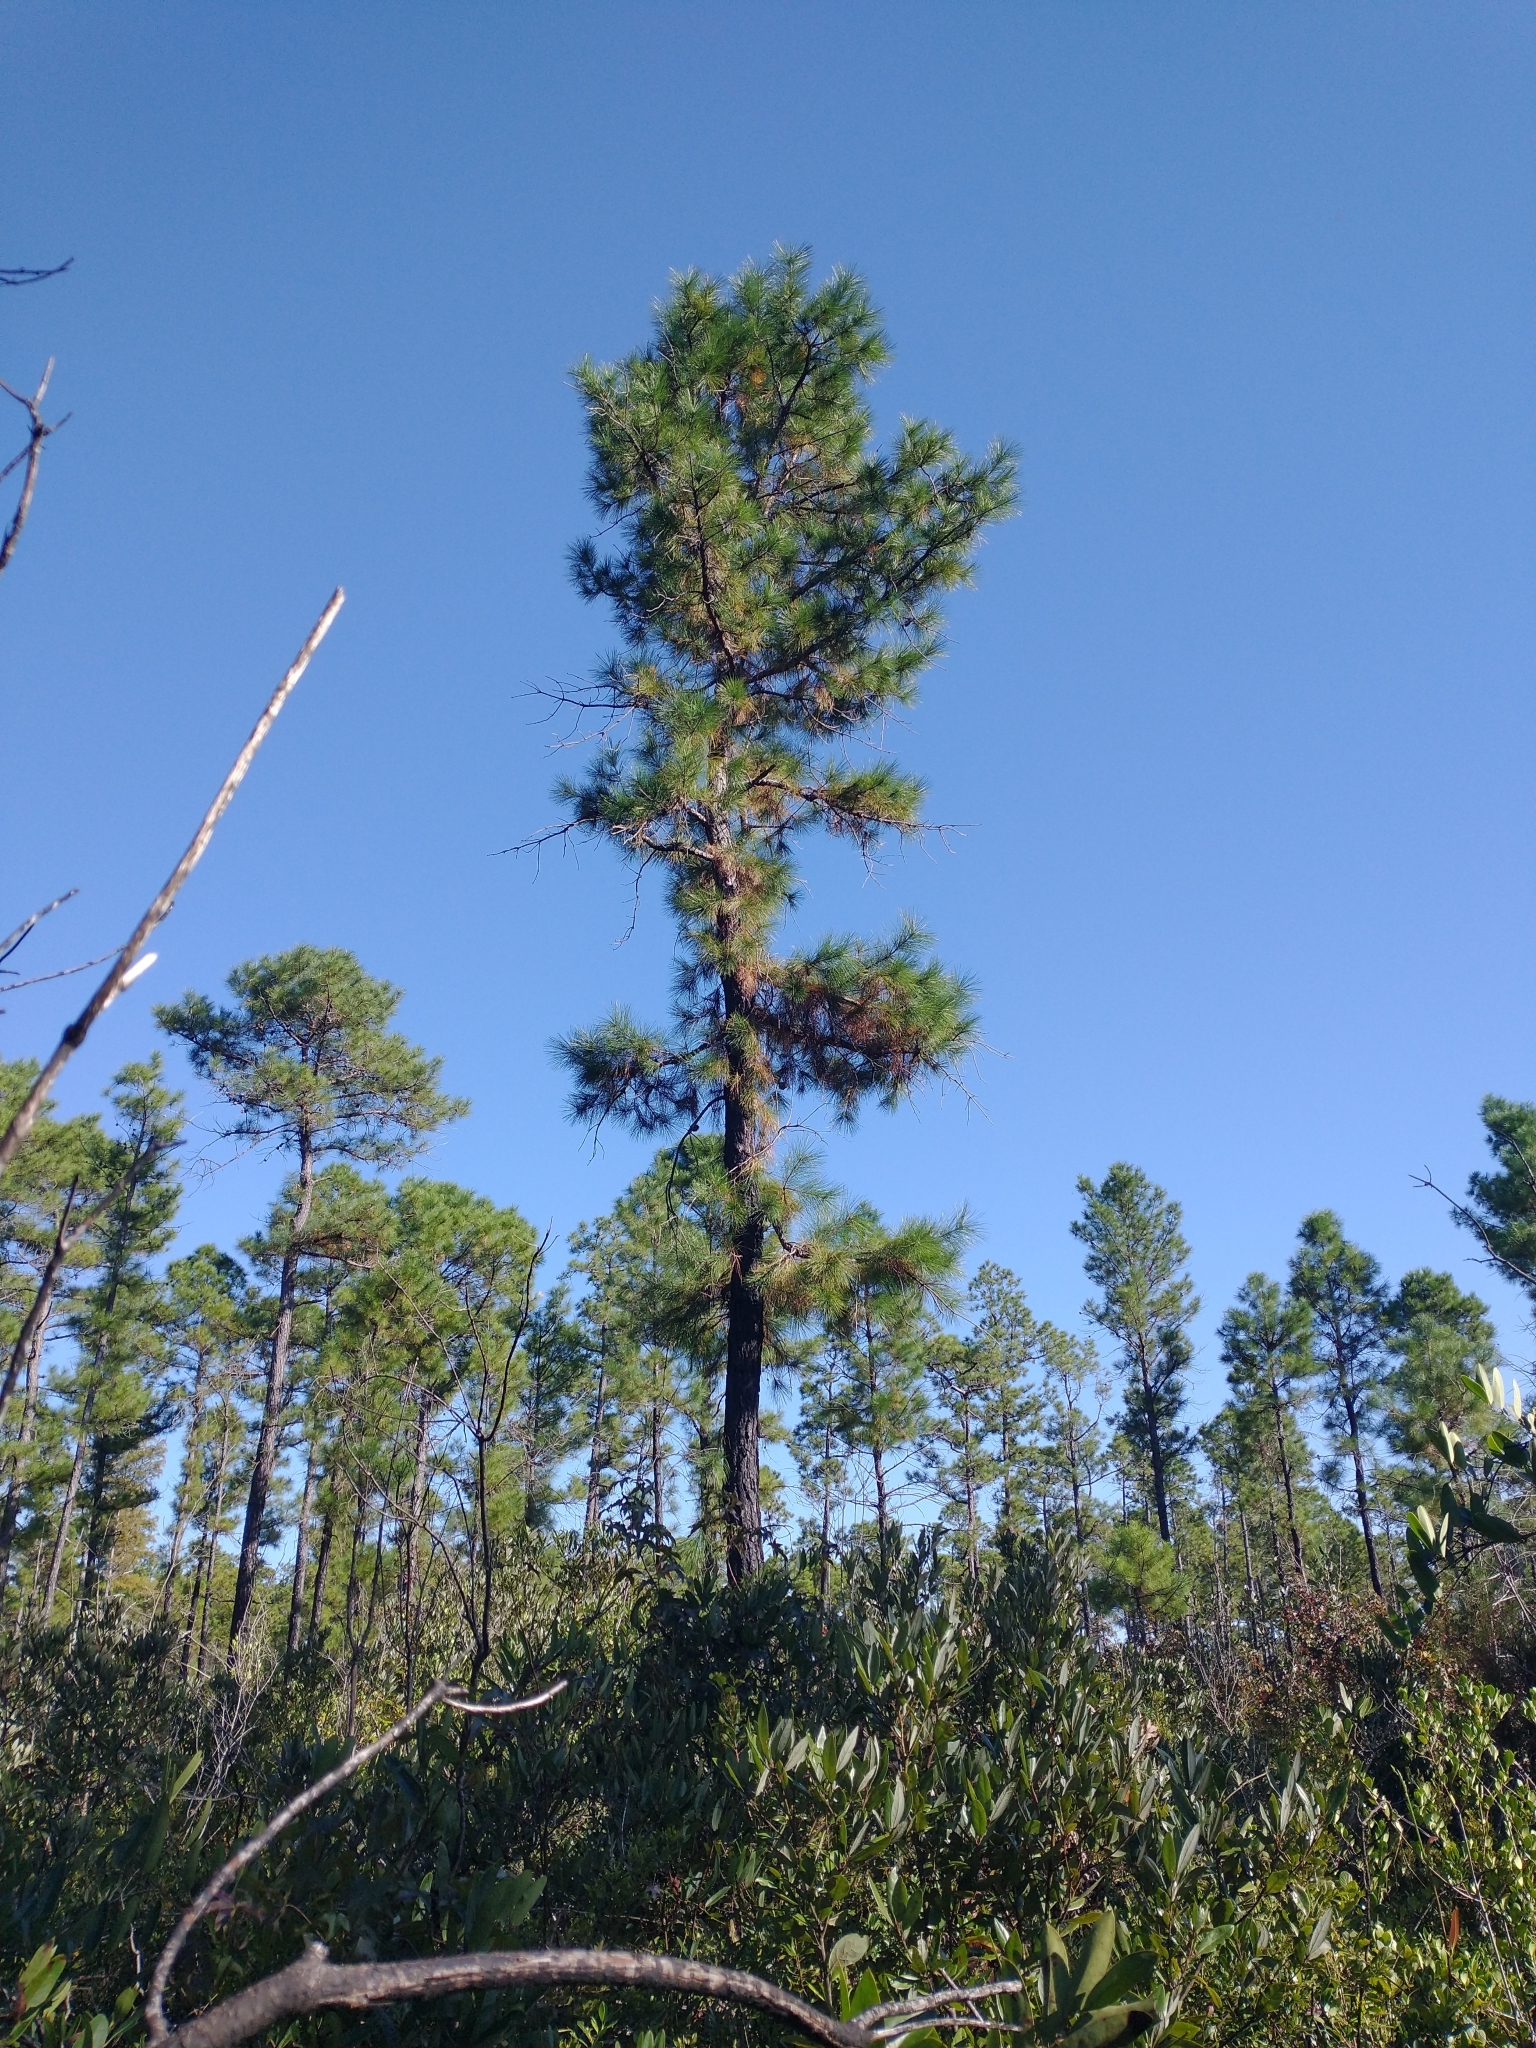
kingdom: Plantae
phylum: Tracheophyta
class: Pinopsida
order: Pinales
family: Pinaceae
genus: Pinus
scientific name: Pinus serotina
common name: Marsh pine
